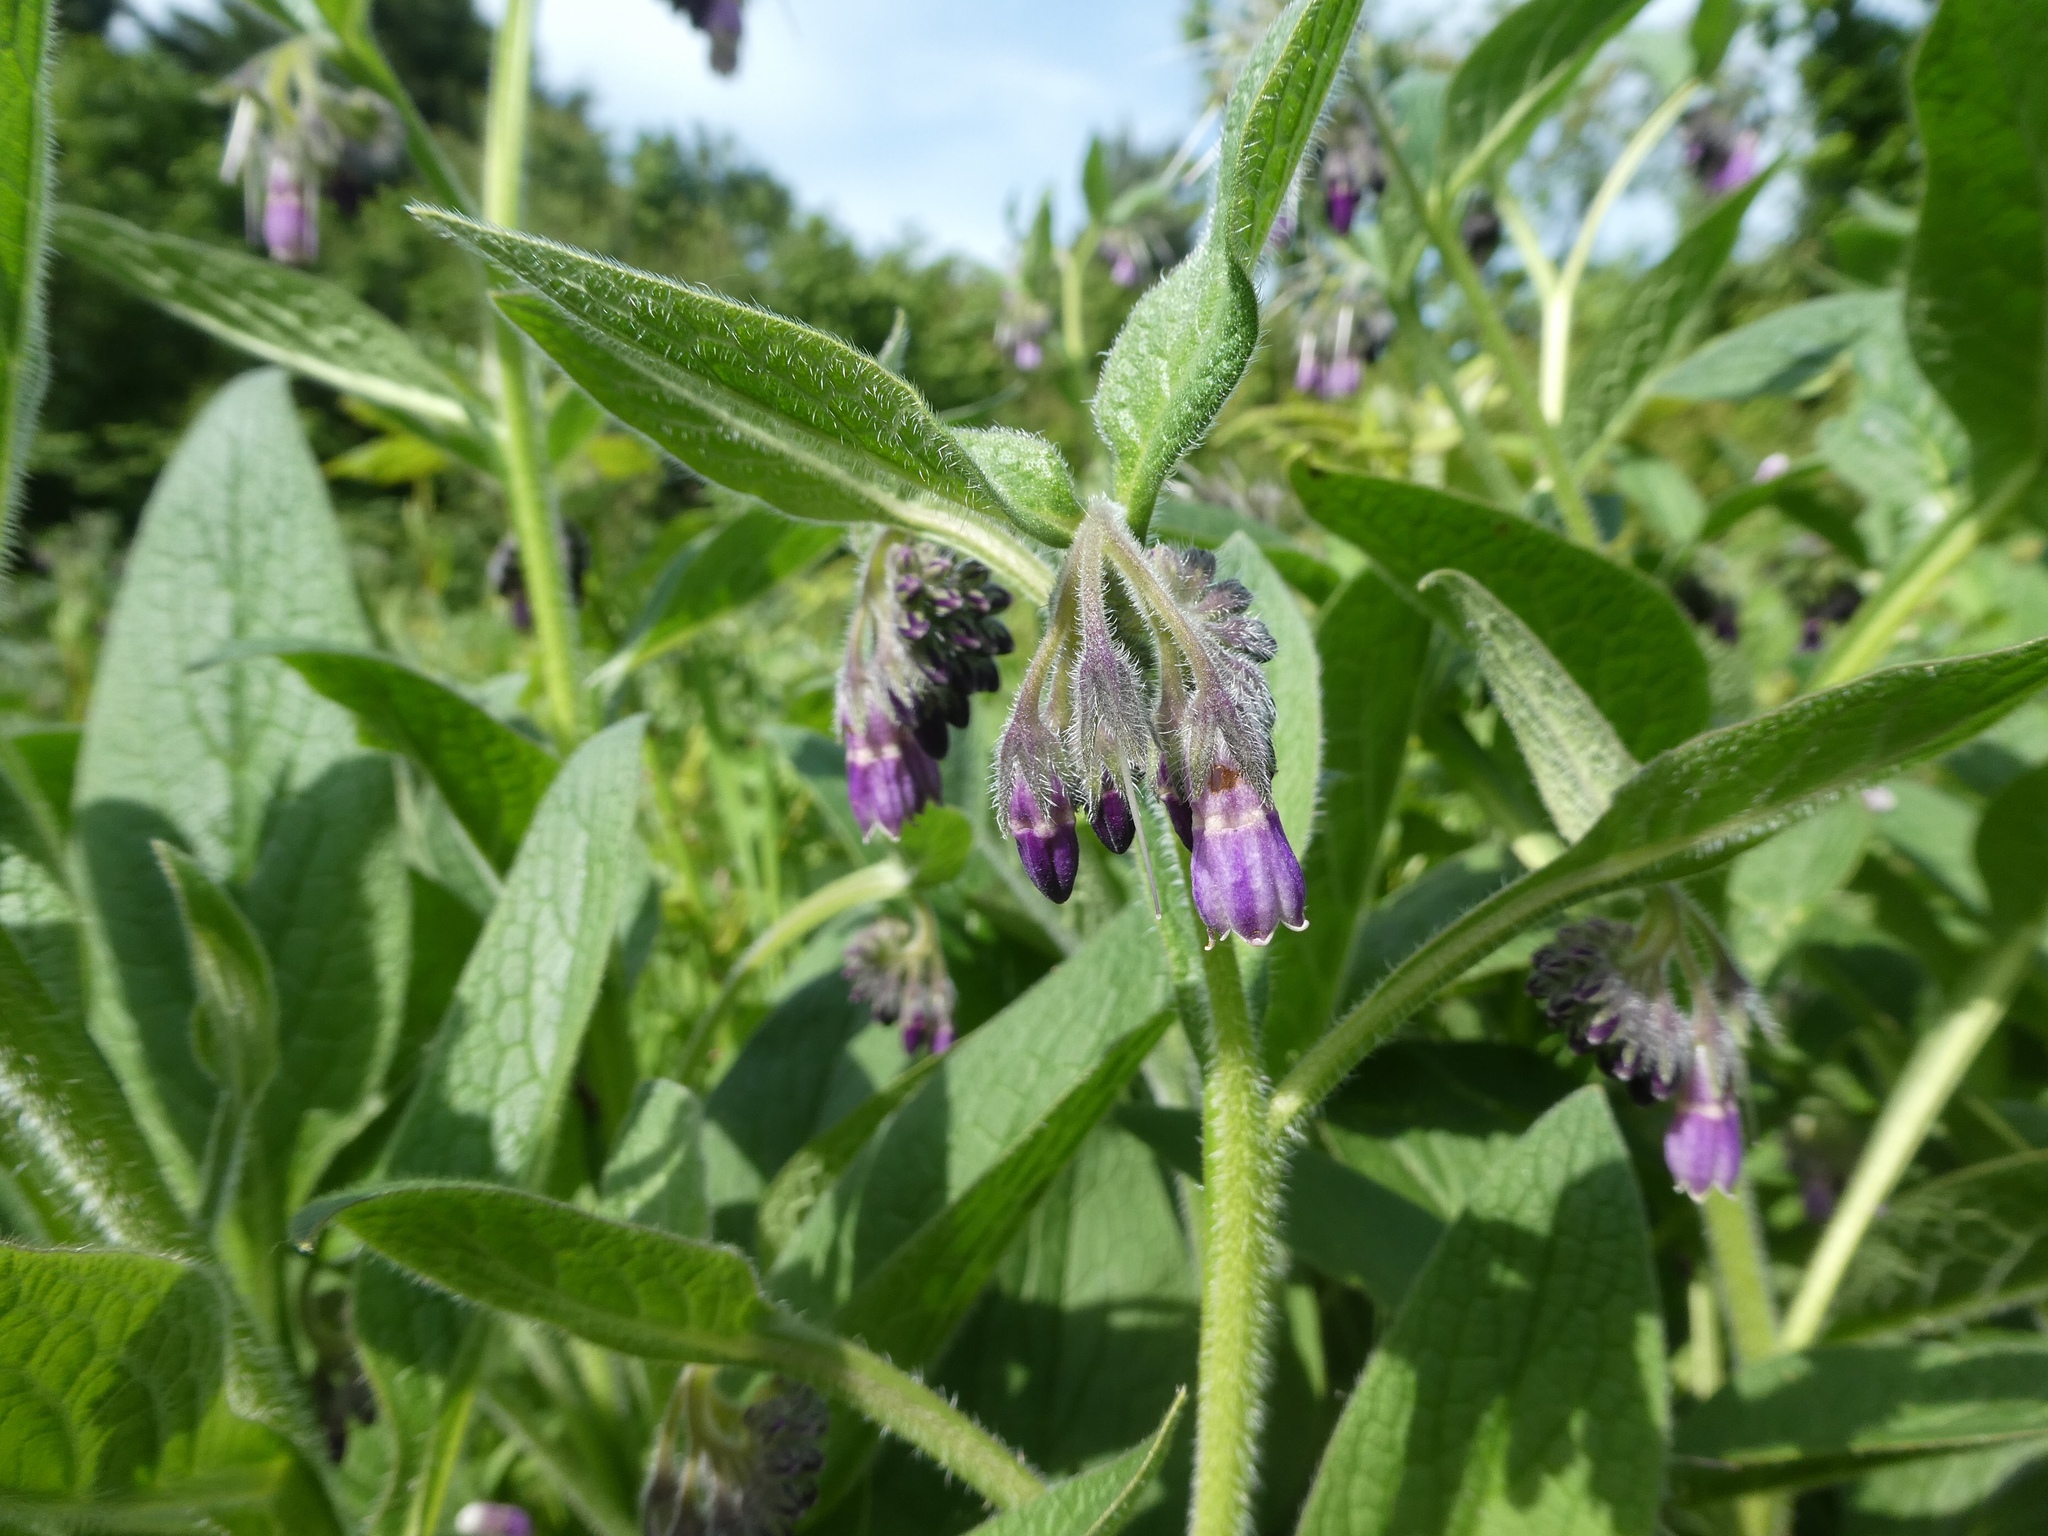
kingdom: Plantae
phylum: Tracheophyta
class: Magnoliopsida
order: Boraginales
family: Boraginaceae
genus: Symphytum
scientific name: Symphytum uplandicum
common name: Russian comfrey
